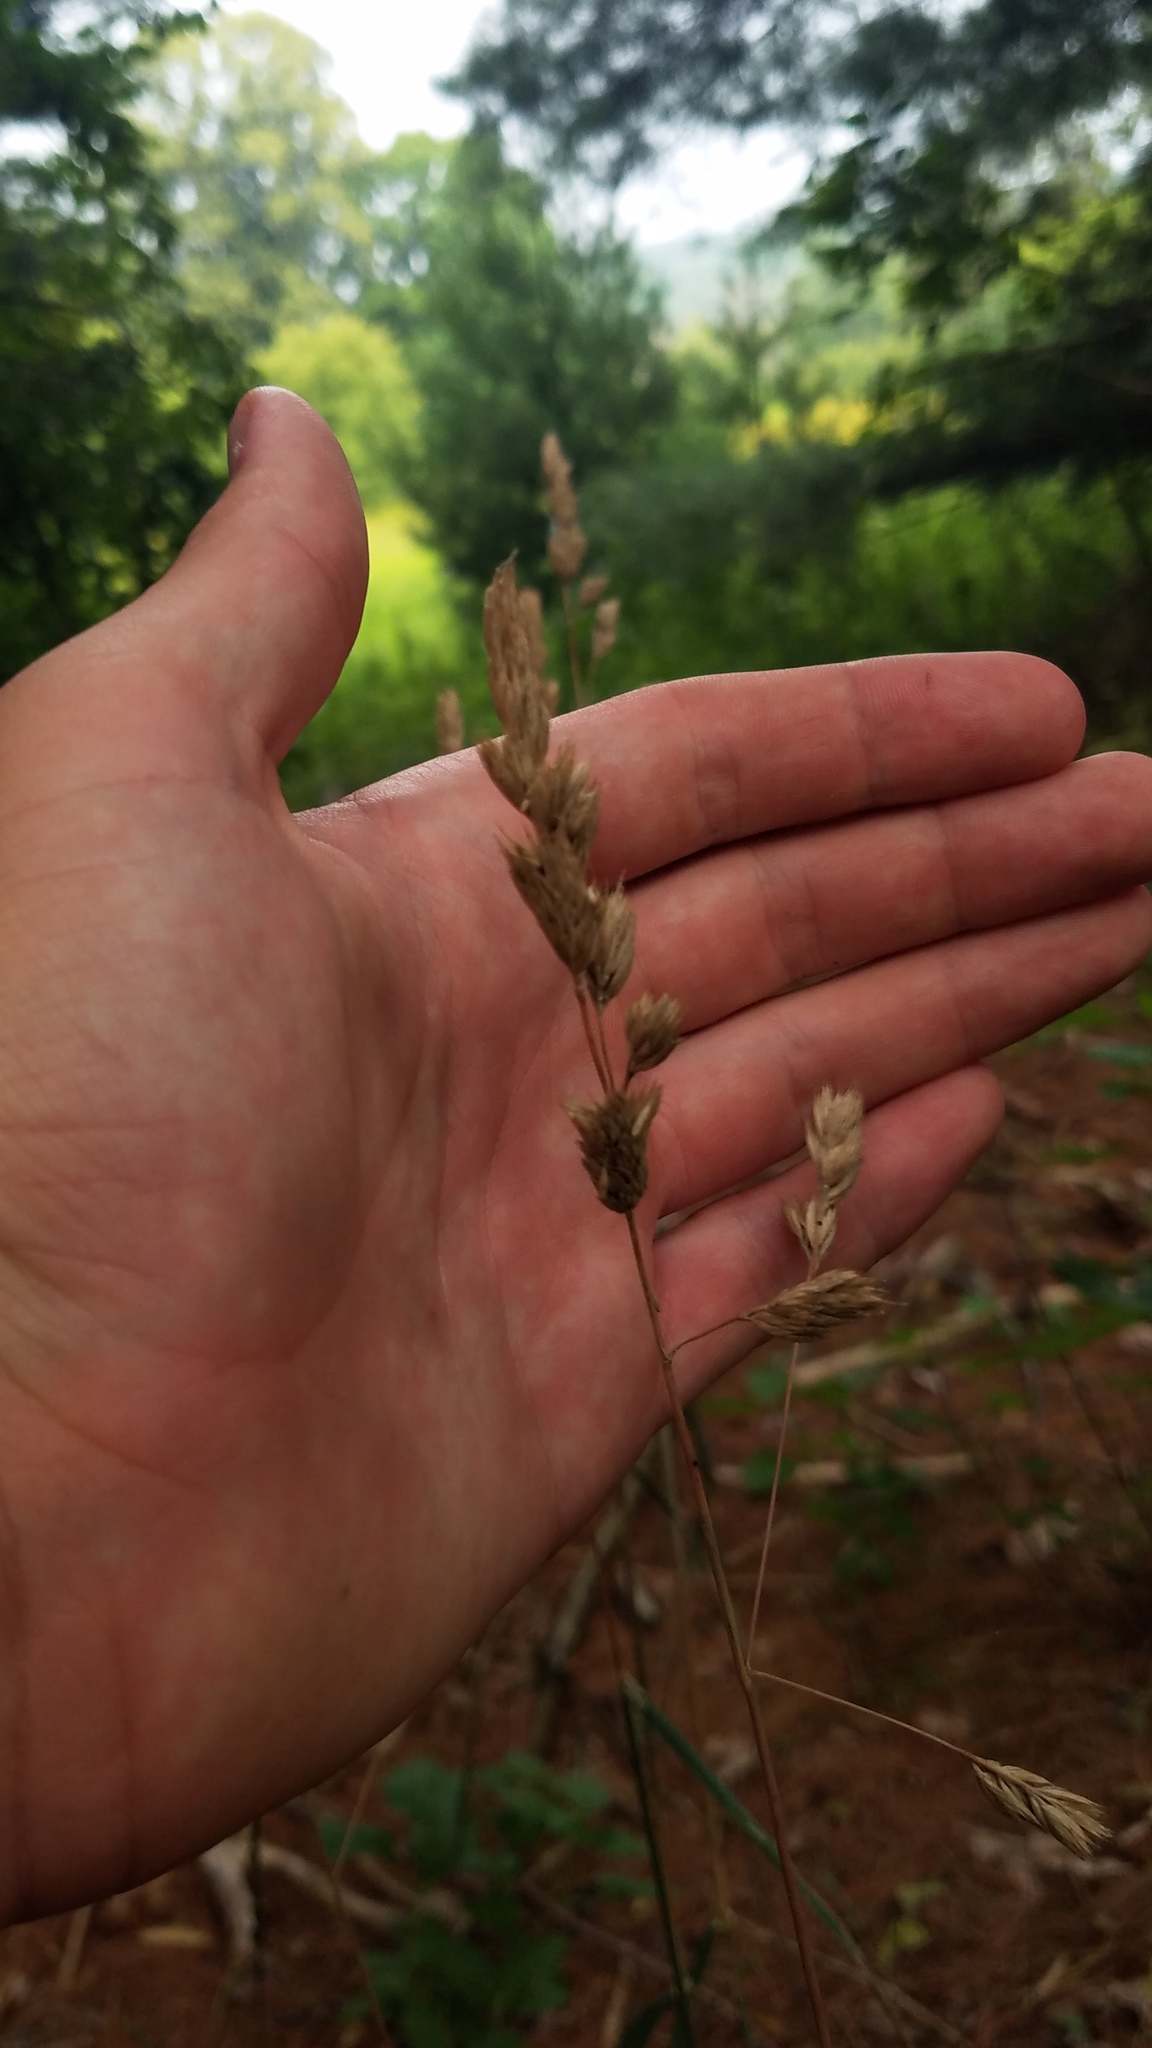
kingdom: Plantae
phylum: Tracheophyta
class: Liliopsida
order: Poales
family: Poaceae
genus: Dactylis
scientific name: Dactylis glomerata
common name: Orchardgrass
